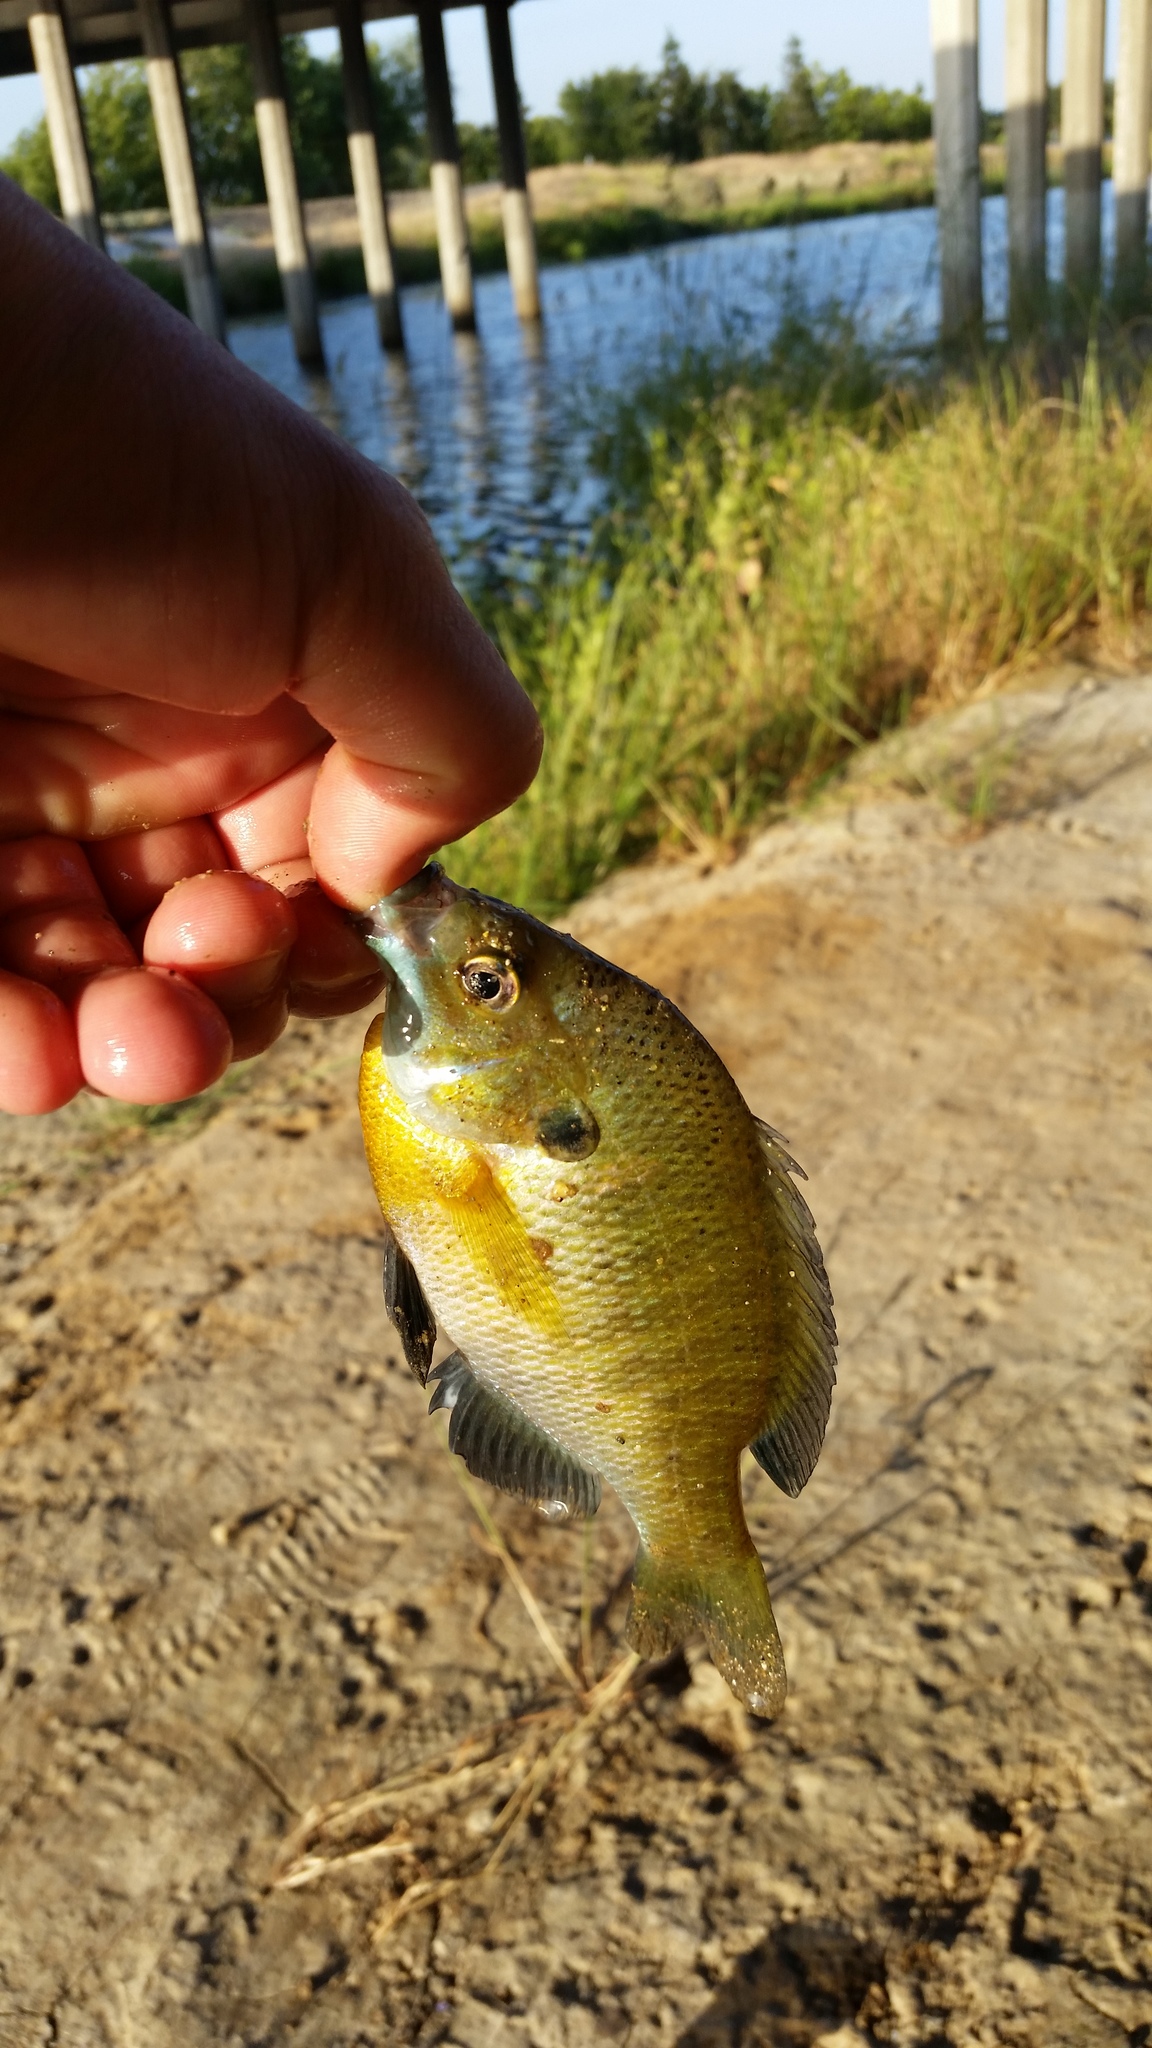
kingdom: Animalia
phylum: Chordata
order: Perciformes
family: Centrarchidae
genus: Lepomis
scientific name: Lepomis macrochirus
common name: Bluegill
